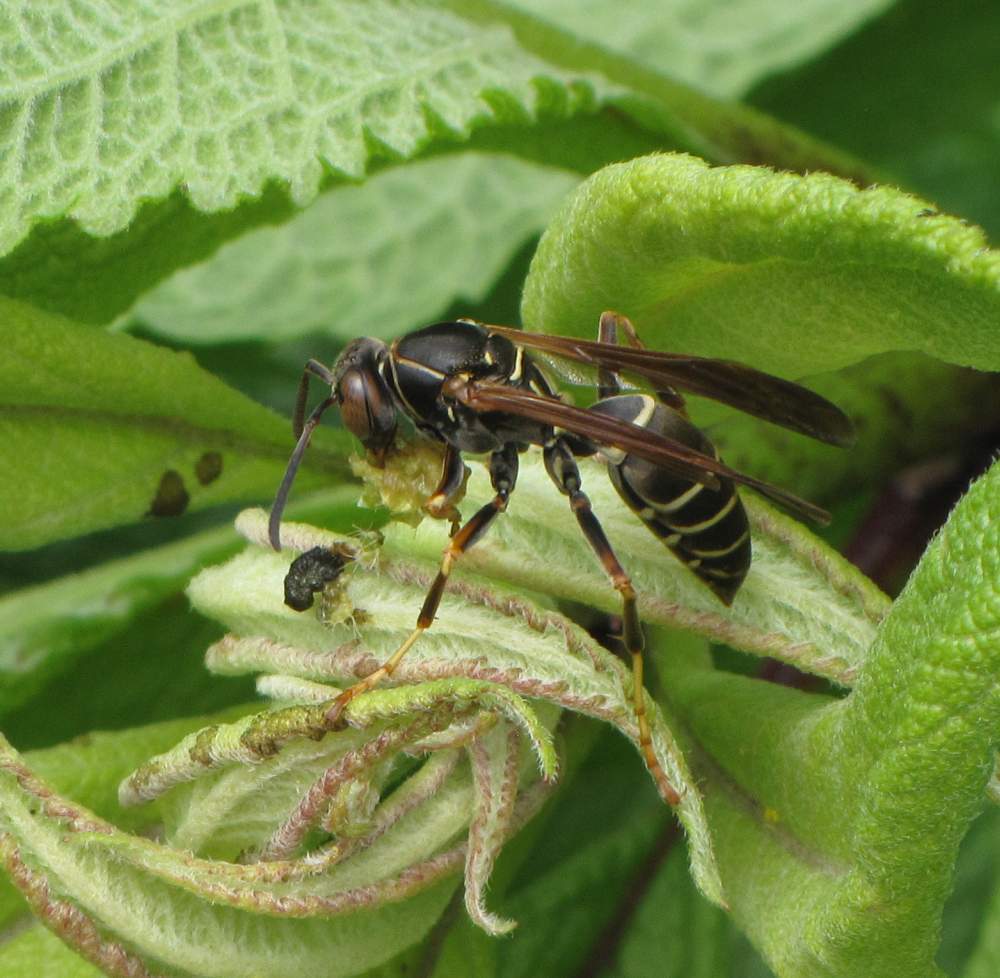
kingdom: Animalia
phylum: Arthropoda
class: Insecta
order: Hymenoptera
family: Eumenidae
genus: Polistes
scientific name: Polistes fuscatus
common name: Dark paper wasp
